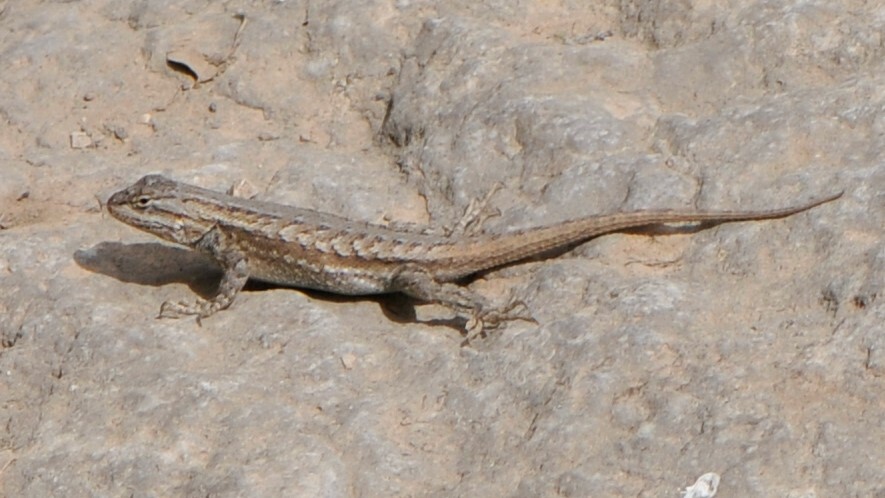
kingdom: Animalia
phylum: Chordata
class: Squamata
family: Phrynosomatidae
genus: Sceloporus
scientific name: Sceloporus cowlesi
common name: White sands prairie lizard
